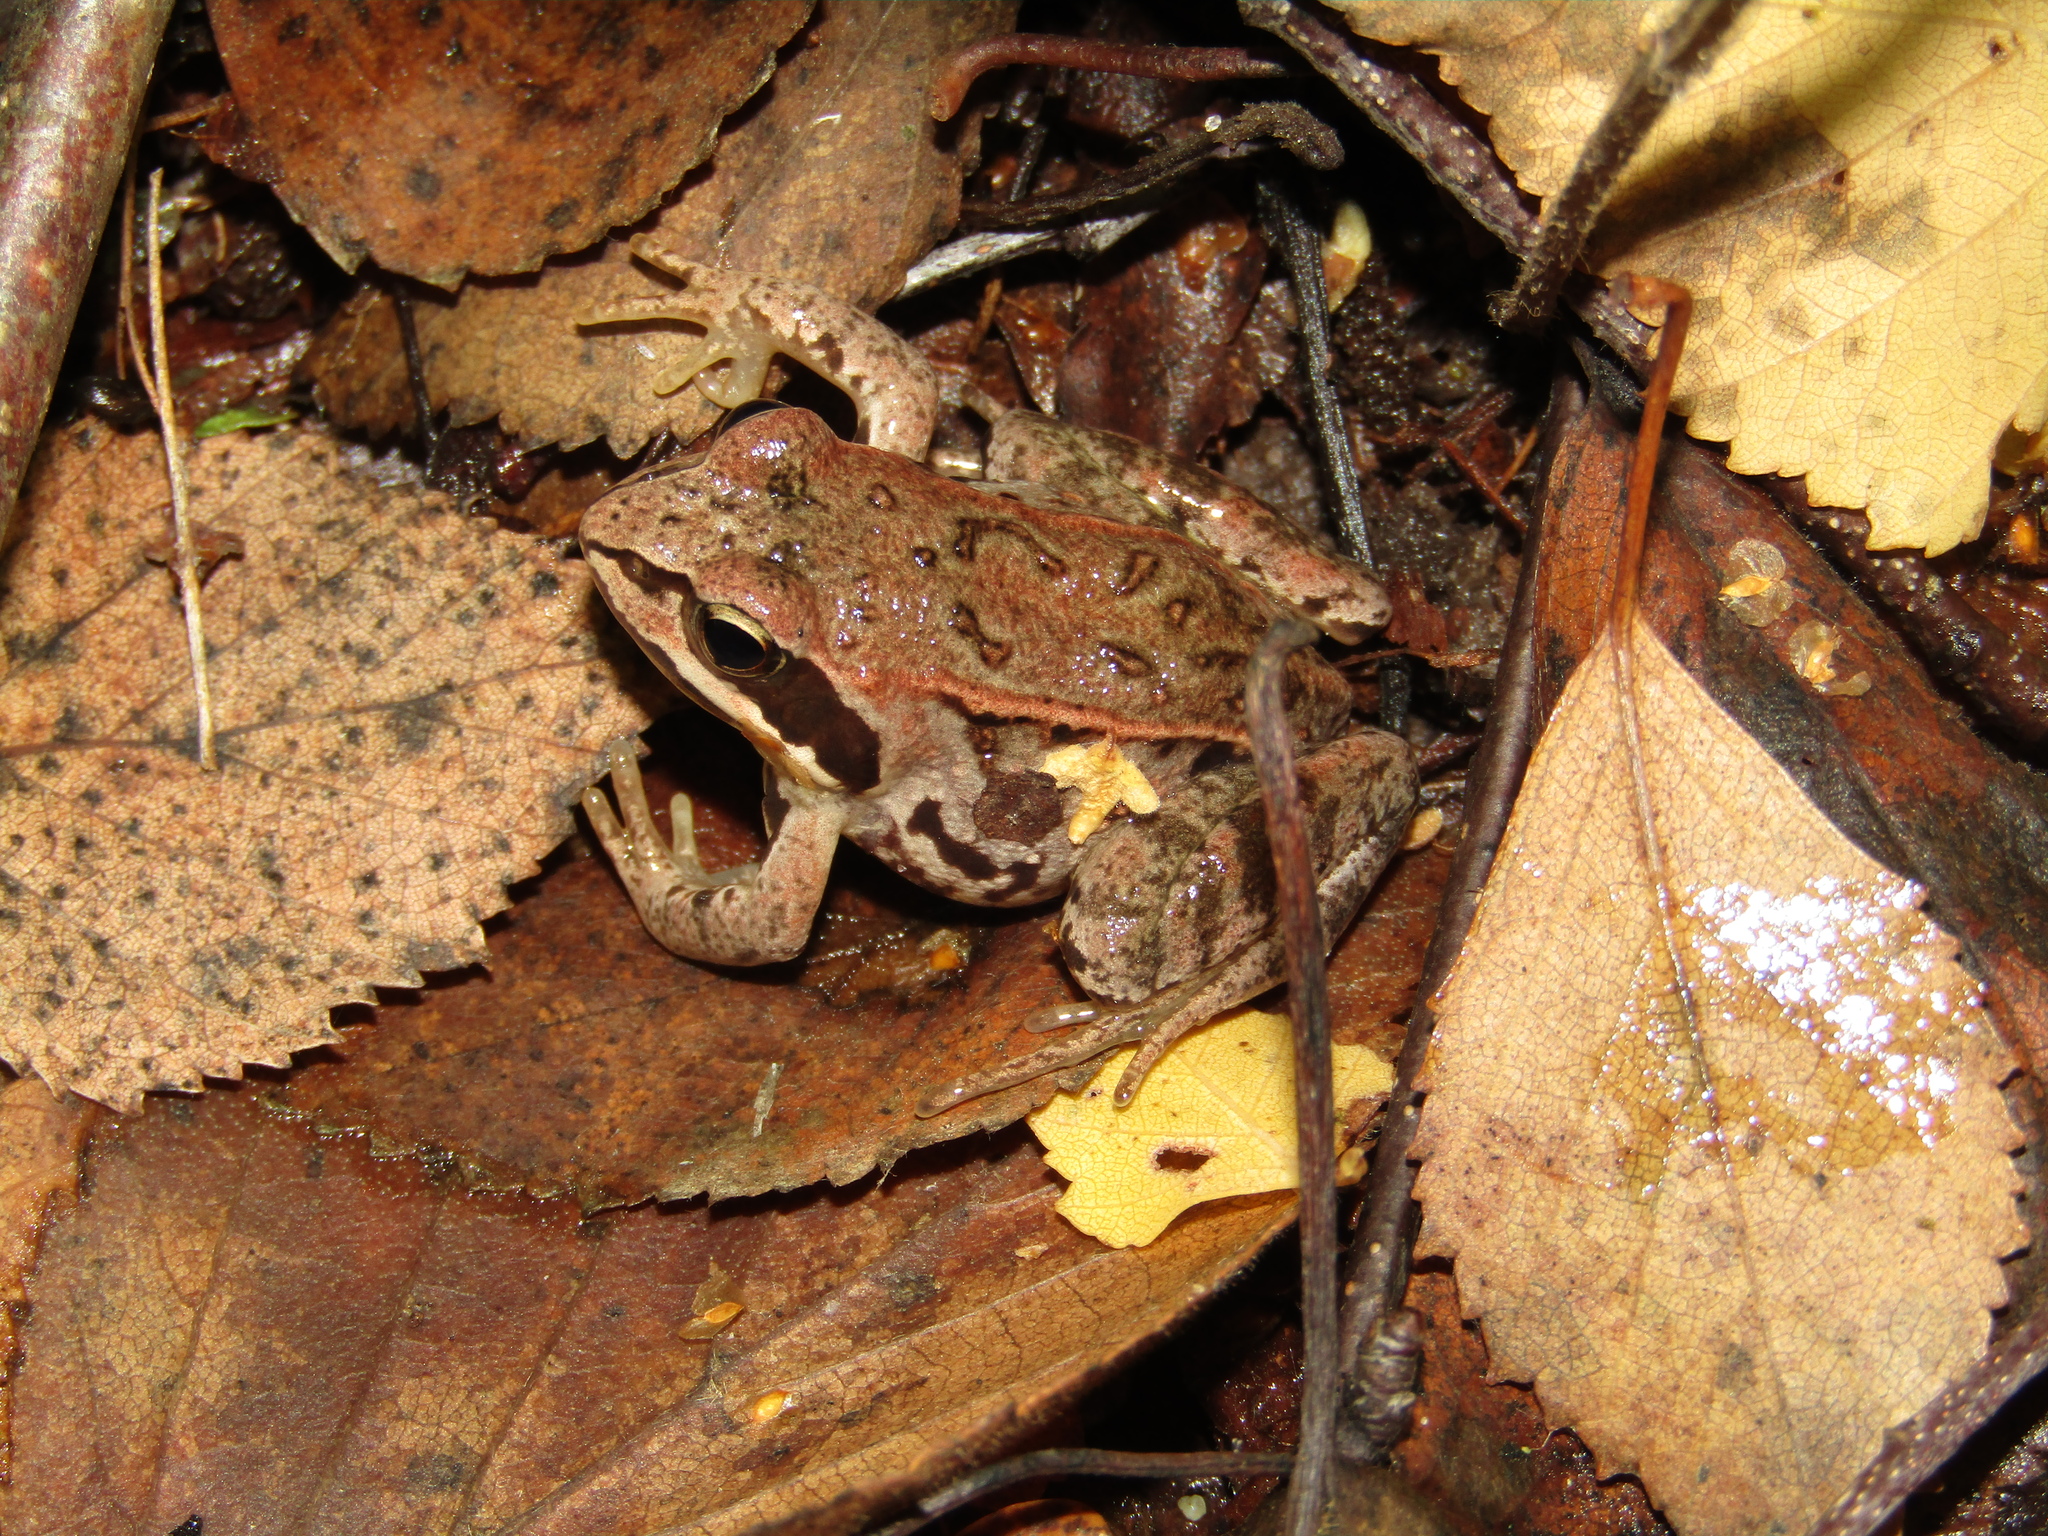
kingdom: Animalia
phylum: Chordata
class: Amphibia
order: Anura
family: Ranidae
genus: Rana
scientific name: Rana arvalis
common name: Moor frog
